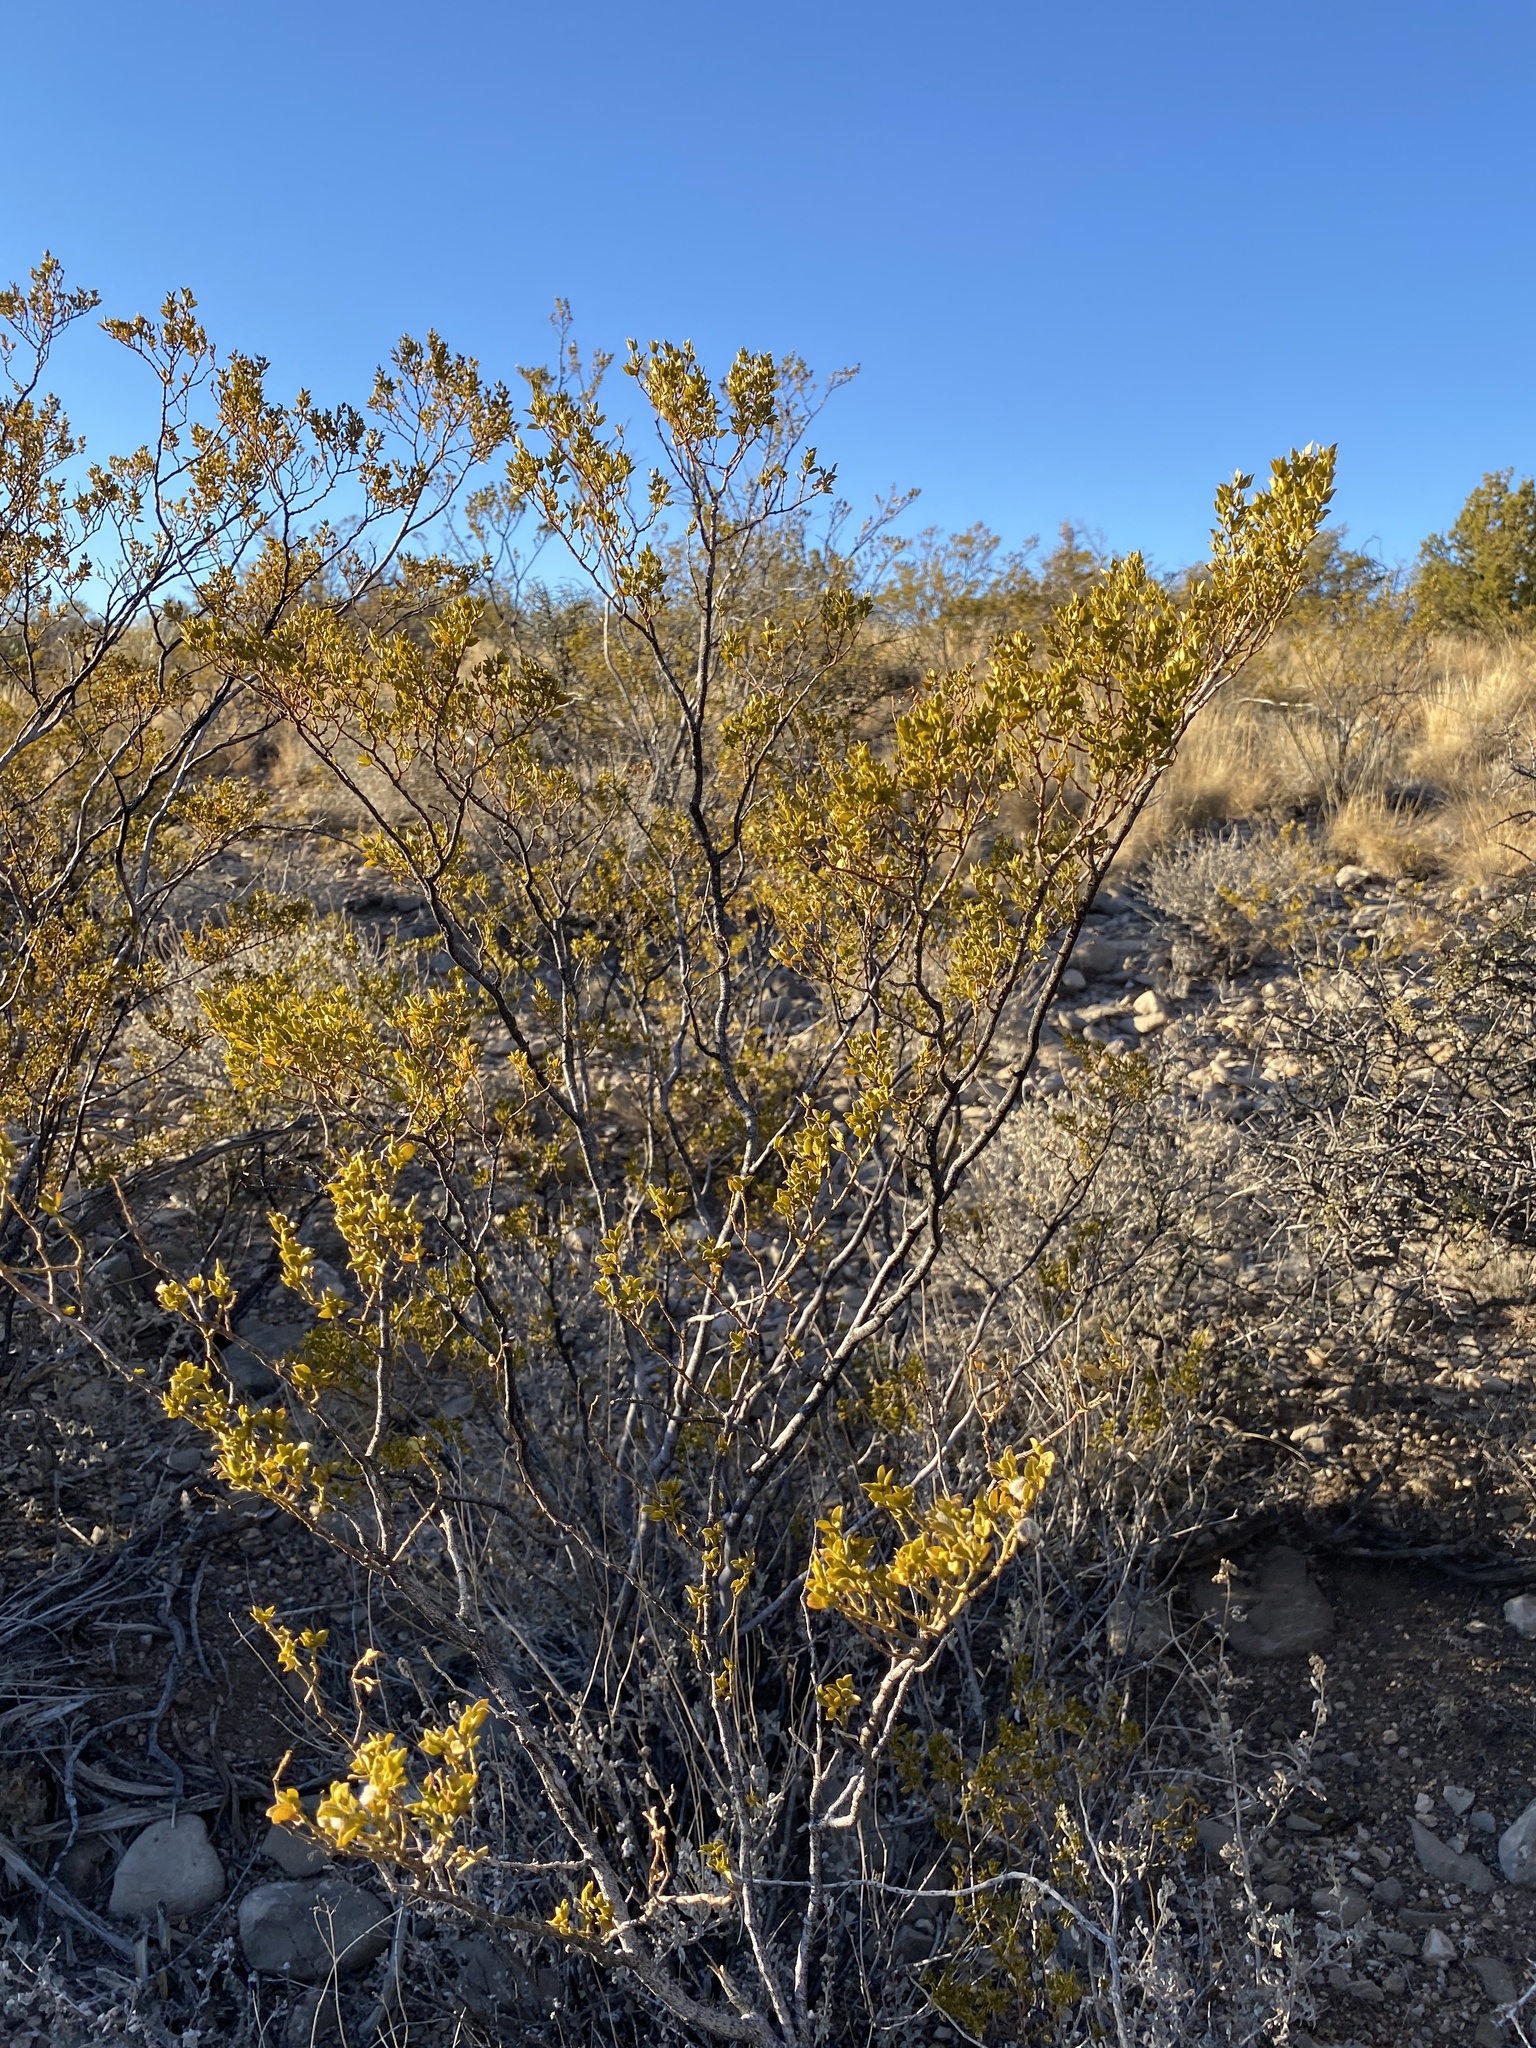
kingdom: Plantae
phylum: Tracheophyta
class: Magnoliopsida
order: Zygophyllales
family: Zygophyllaceae
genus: Larrea
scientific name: Larrea tridentata
